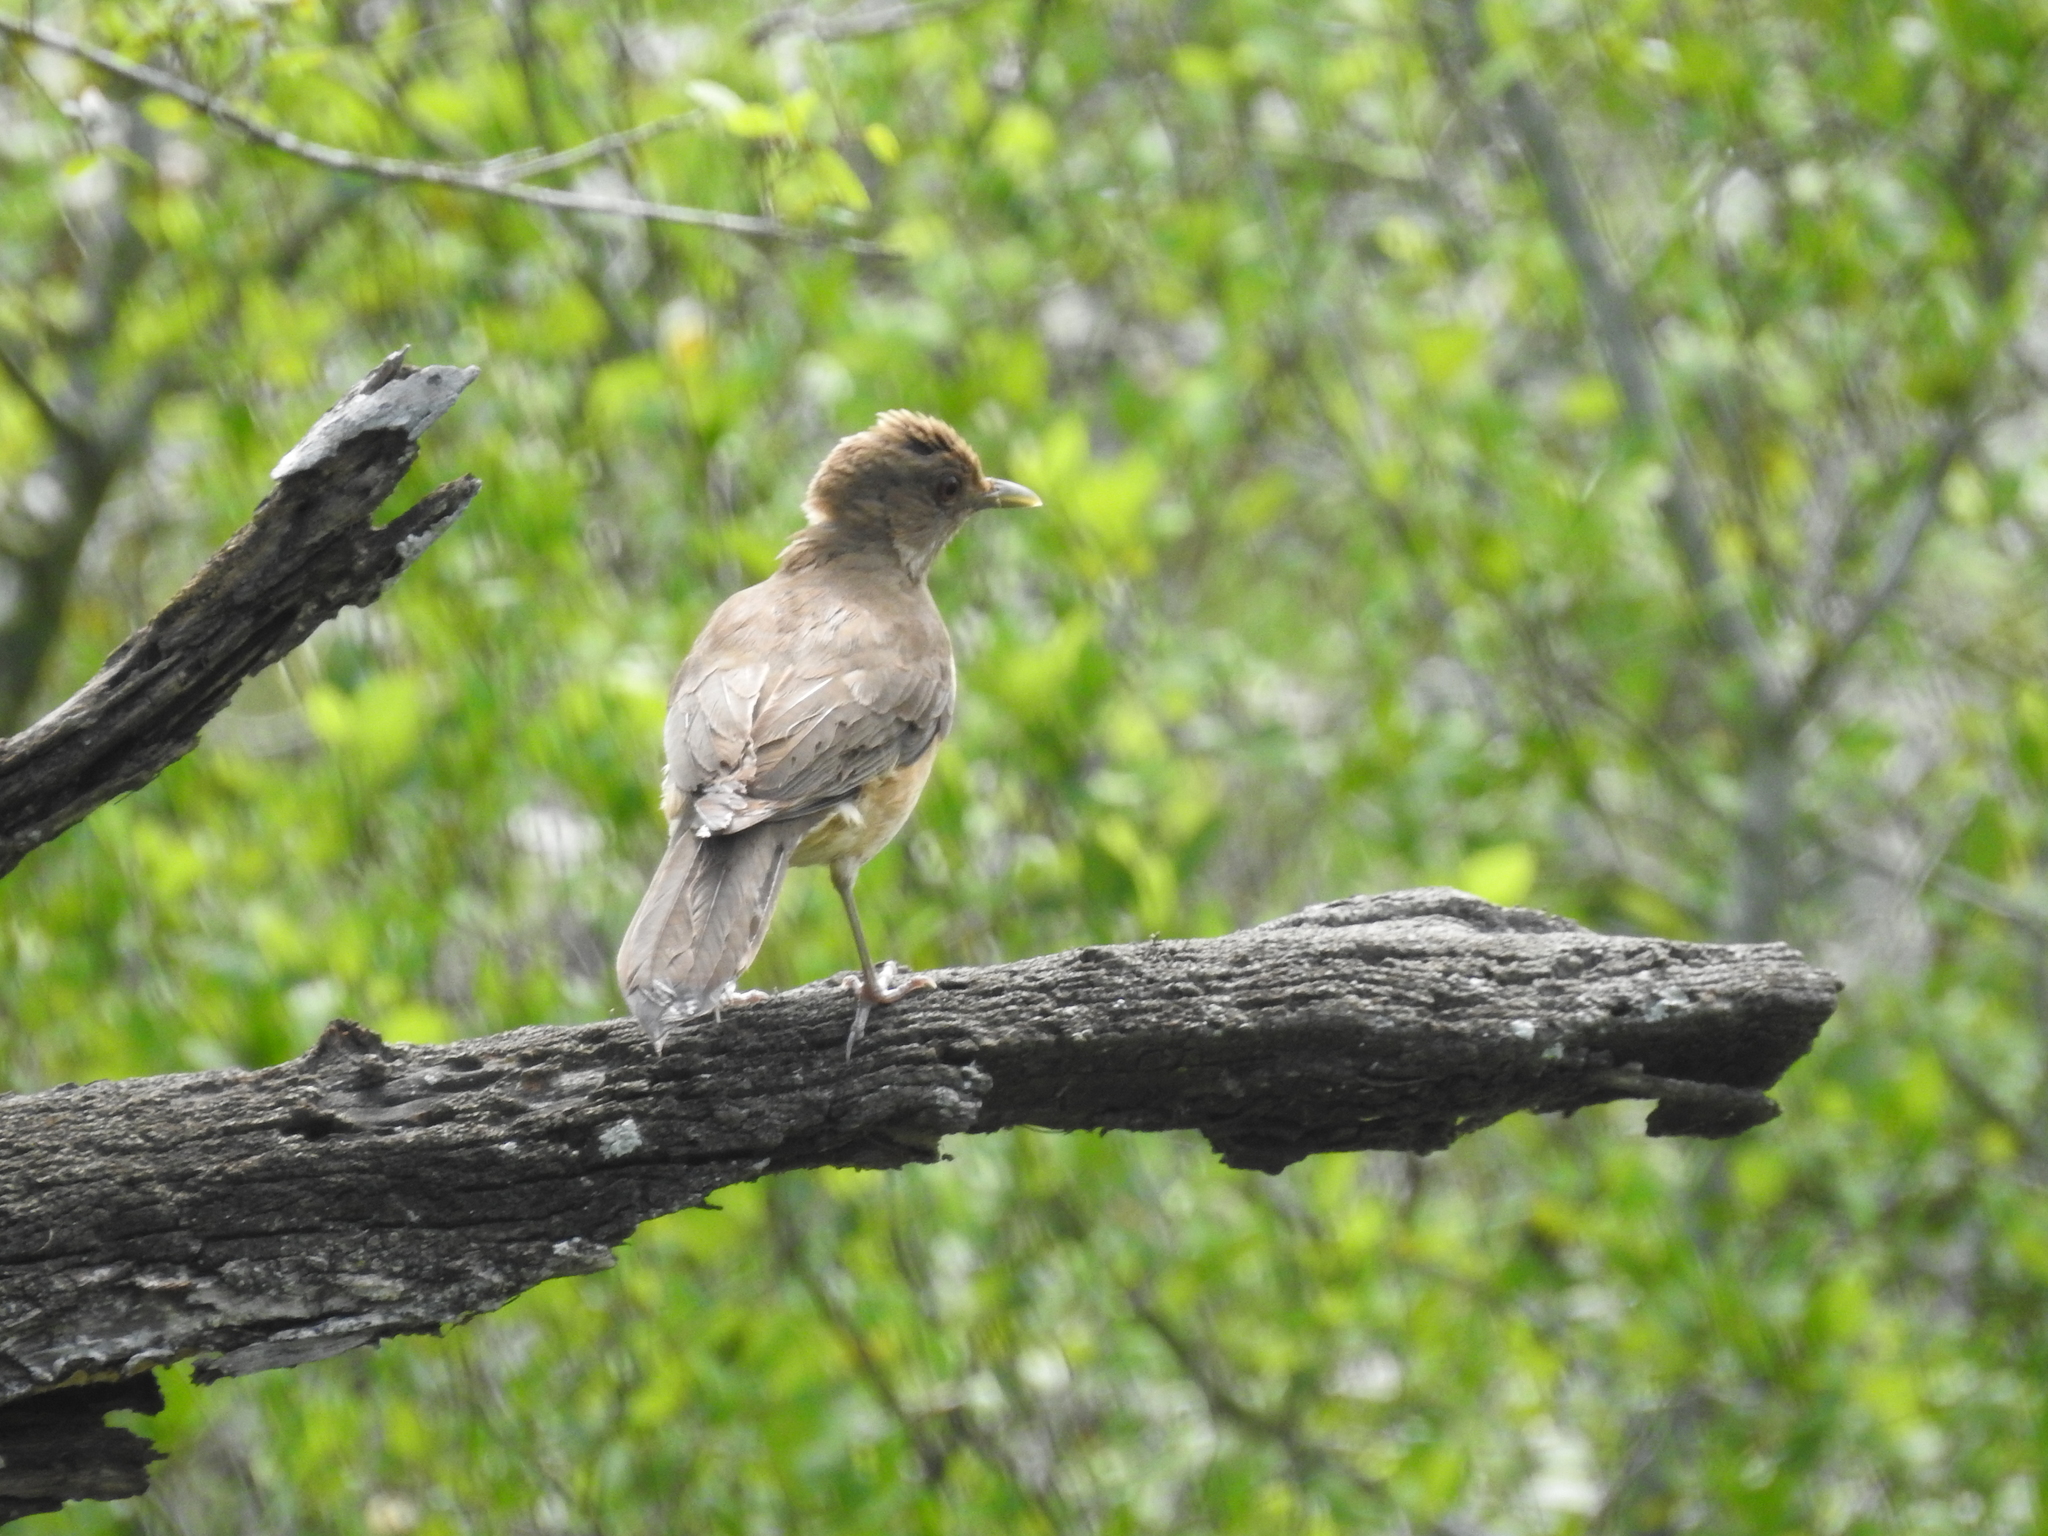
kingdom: Animalia
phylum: Chordata
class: Aves
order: Passeriformes
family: Turdidae
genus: Turdus
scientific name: Turdus grayi
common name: Clay-colored thrush
